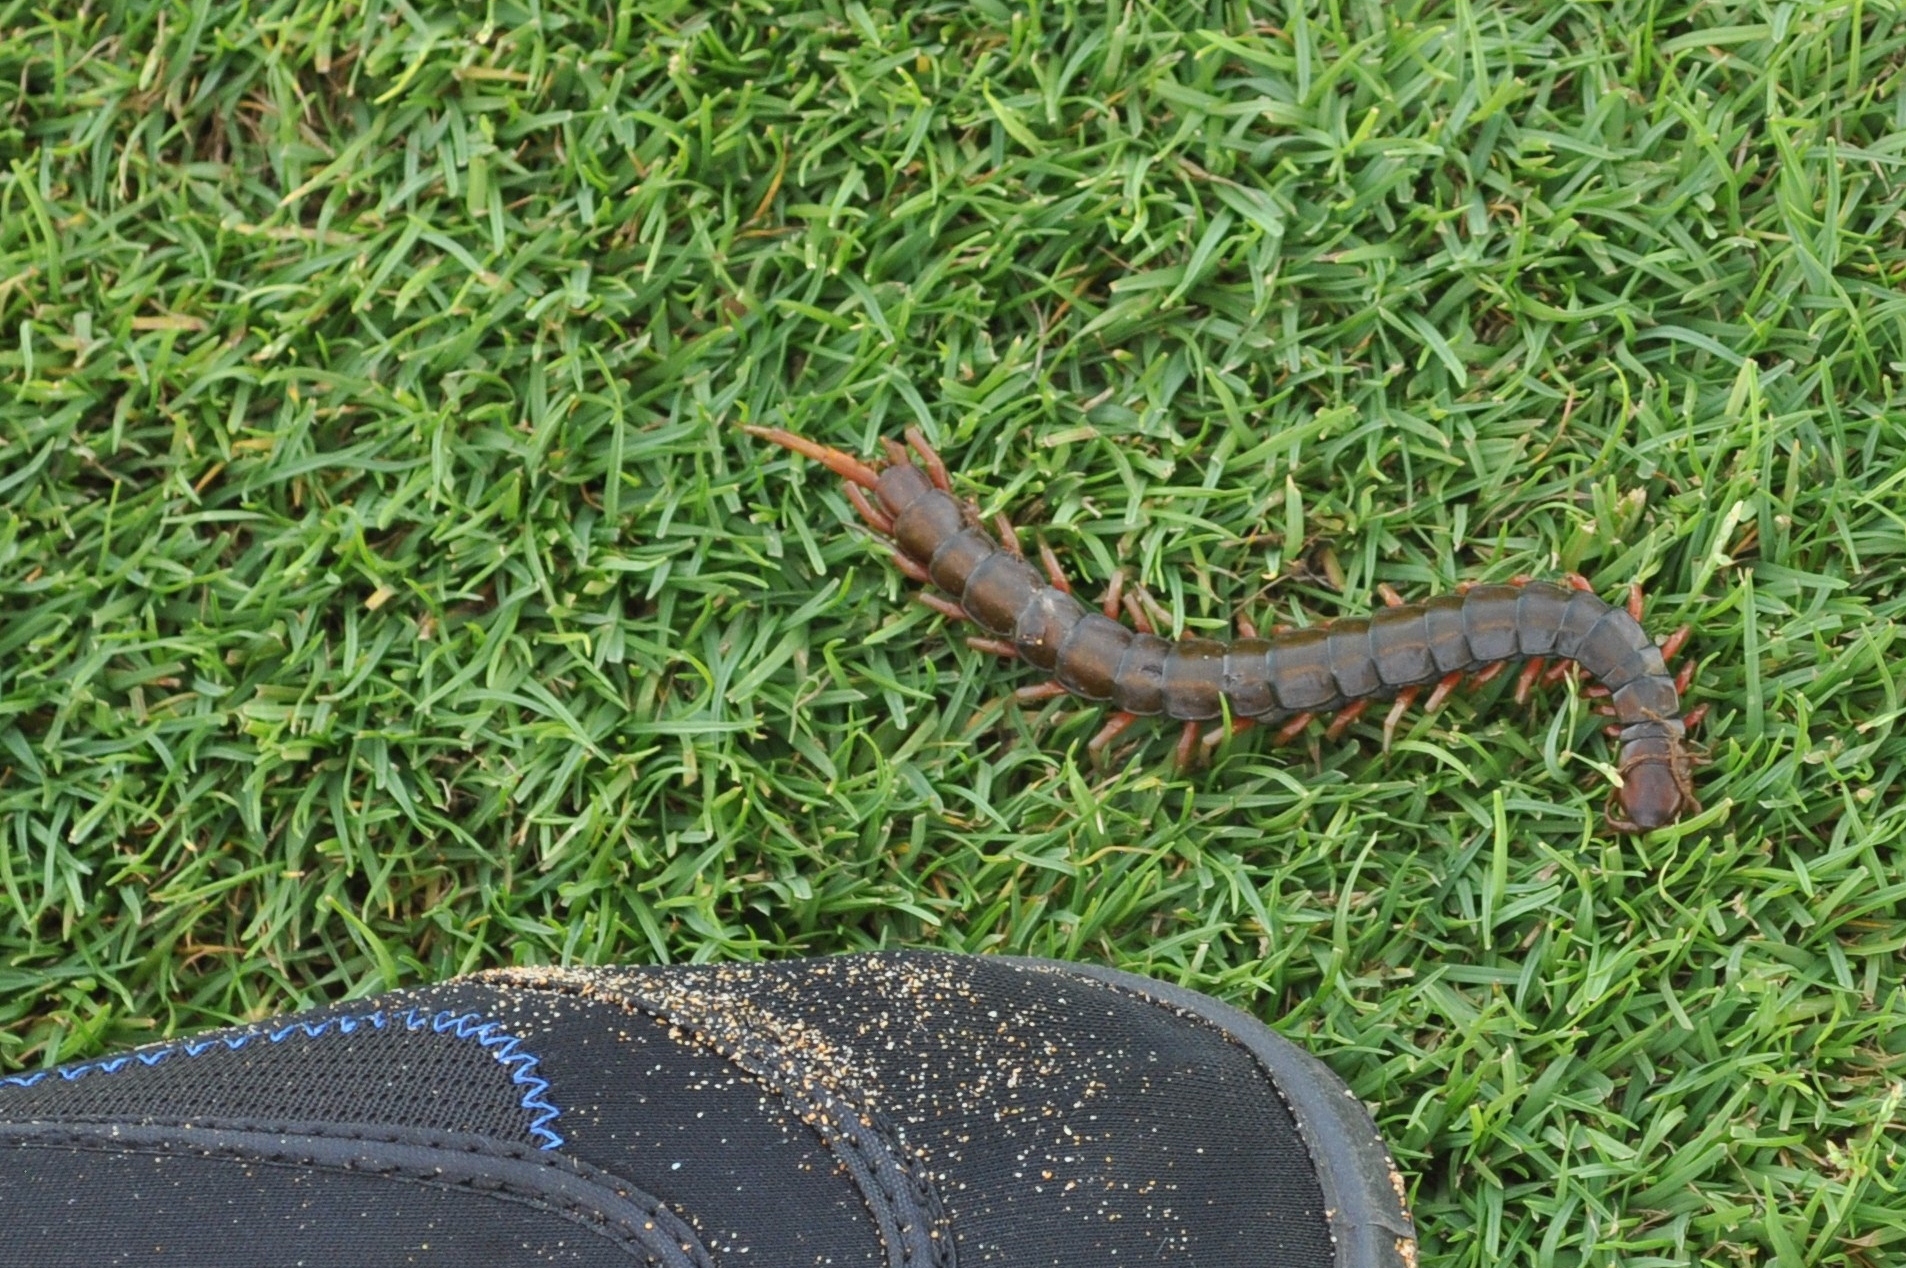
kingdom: Animalia
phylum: Arthropoda
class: Chilopoda
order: Scolopendromorpha
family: Scolopendridae
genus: Scolopendra
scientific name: Scolopendra subspinipes
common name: Centipede
